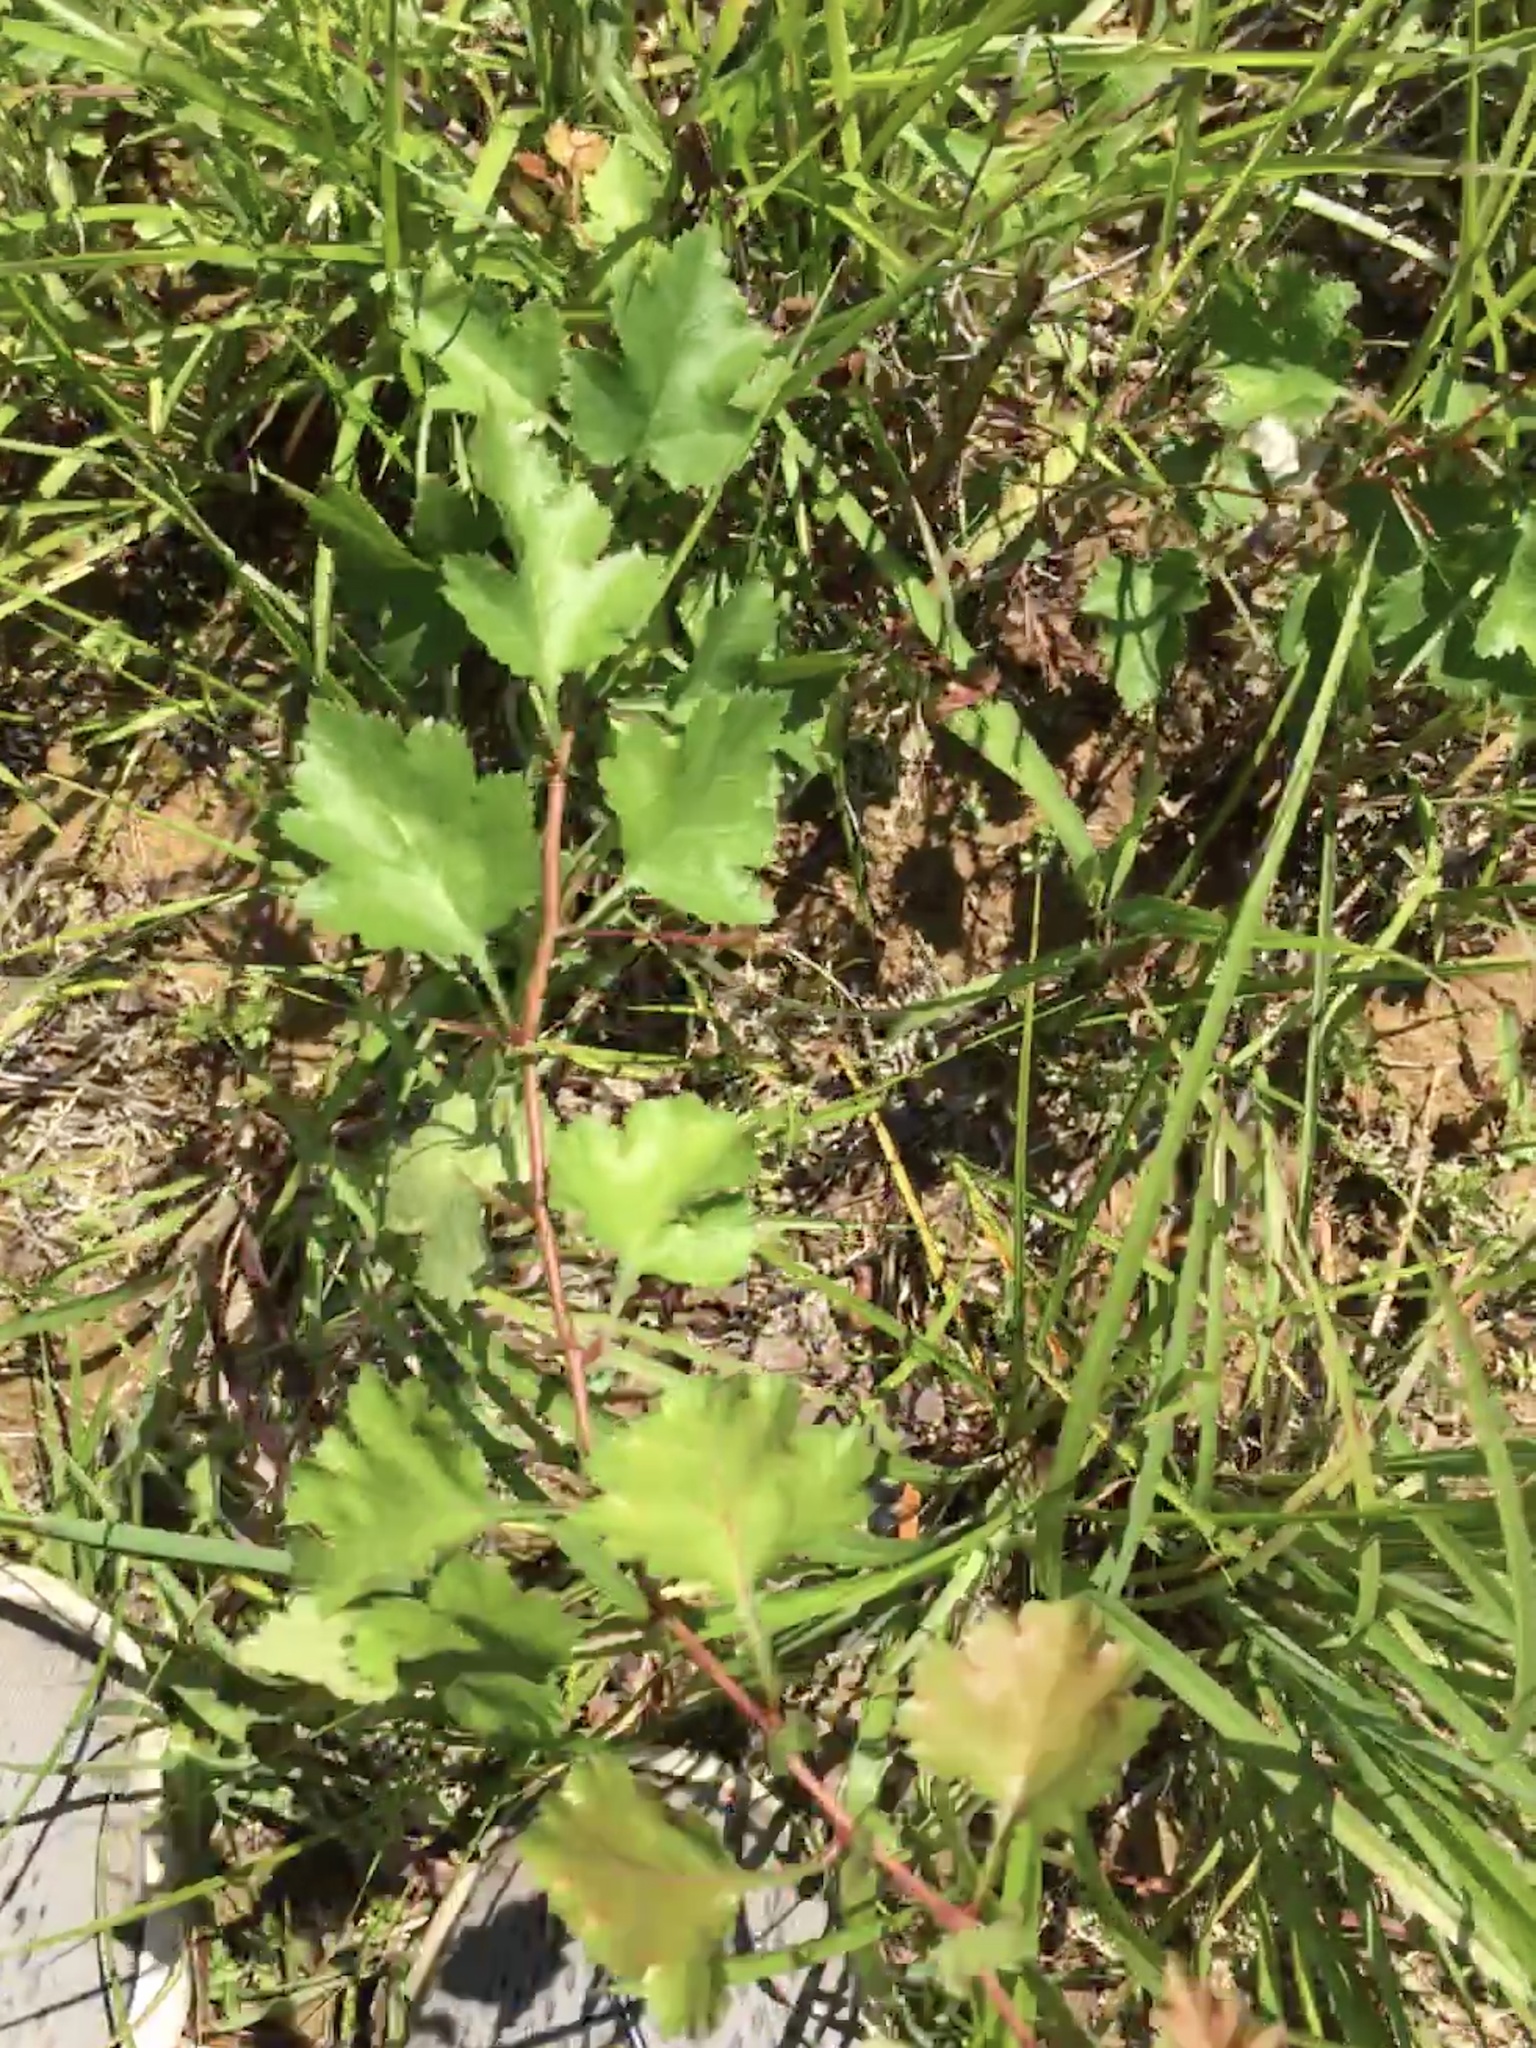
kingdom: Plantae
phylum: Tracheophyta
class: Magnoliopsida
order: Rosales
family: Rosaceae
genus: Crataegus
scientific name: Crataegus marshallii
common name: Parsley-hawthorn
